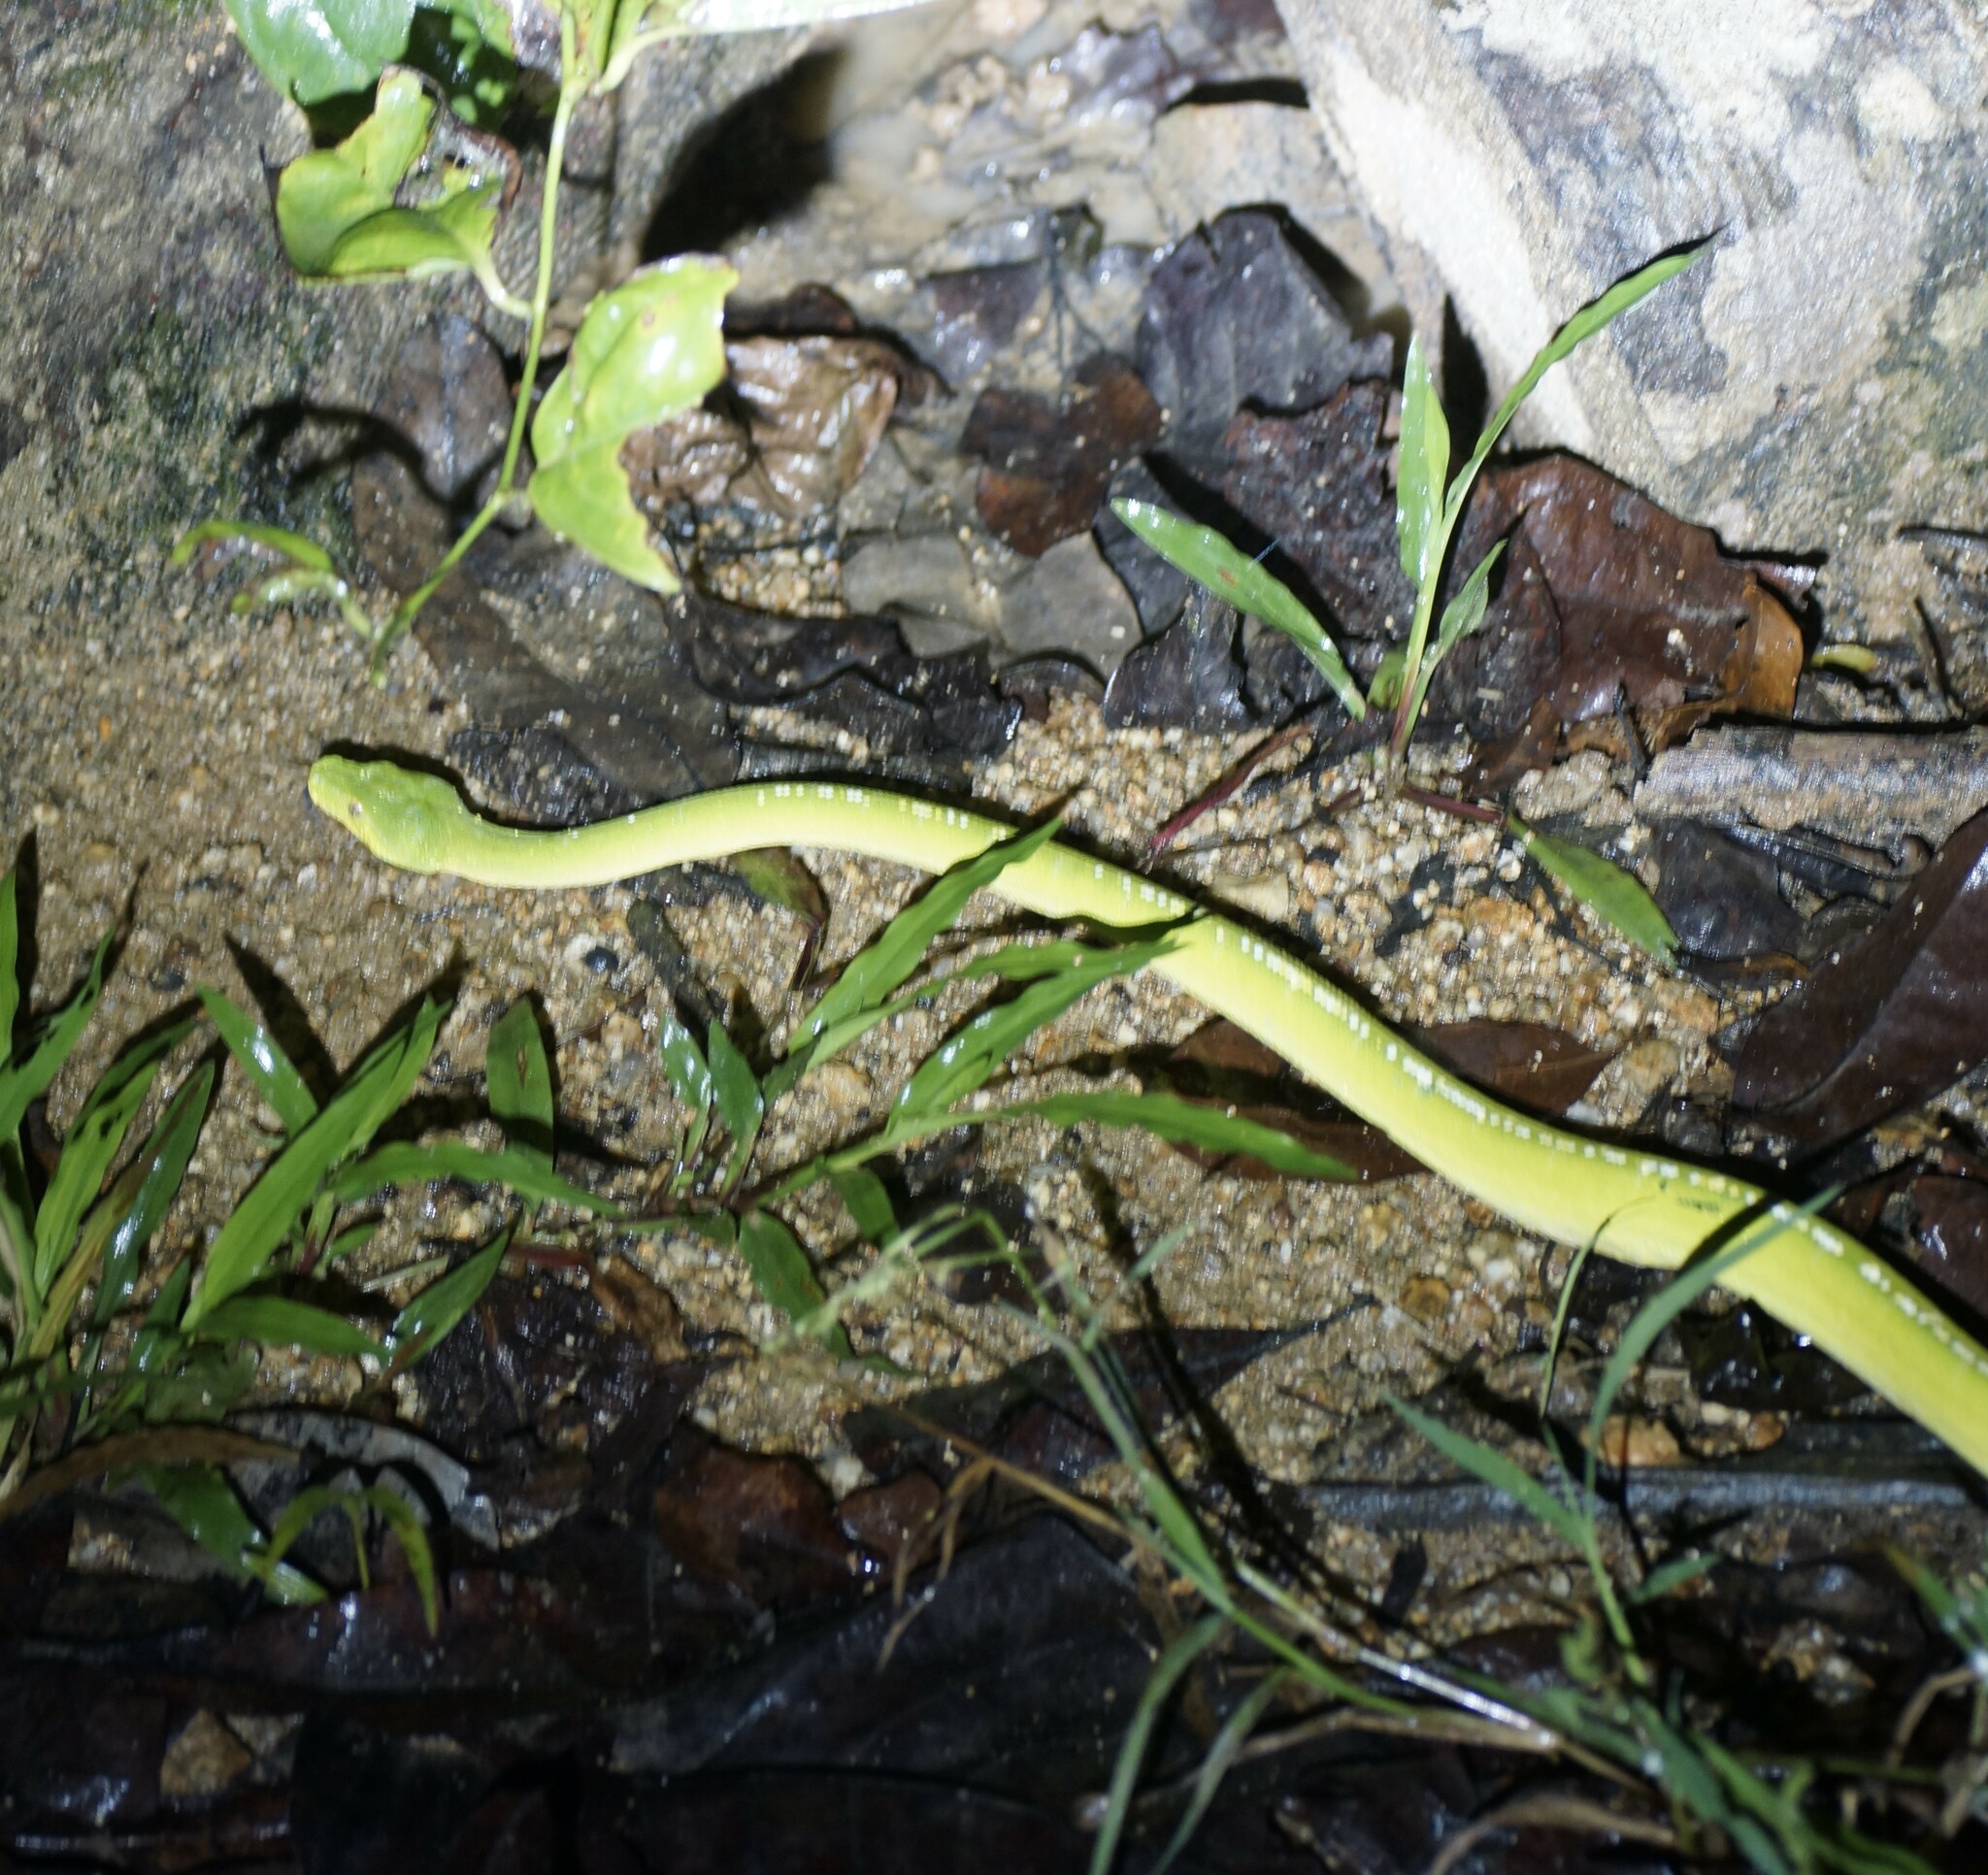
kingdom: Animalia
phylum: Chordata
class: Squamata
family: Pythonidae
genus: Morelia
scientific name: Morelia viridis
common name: Green tree python
